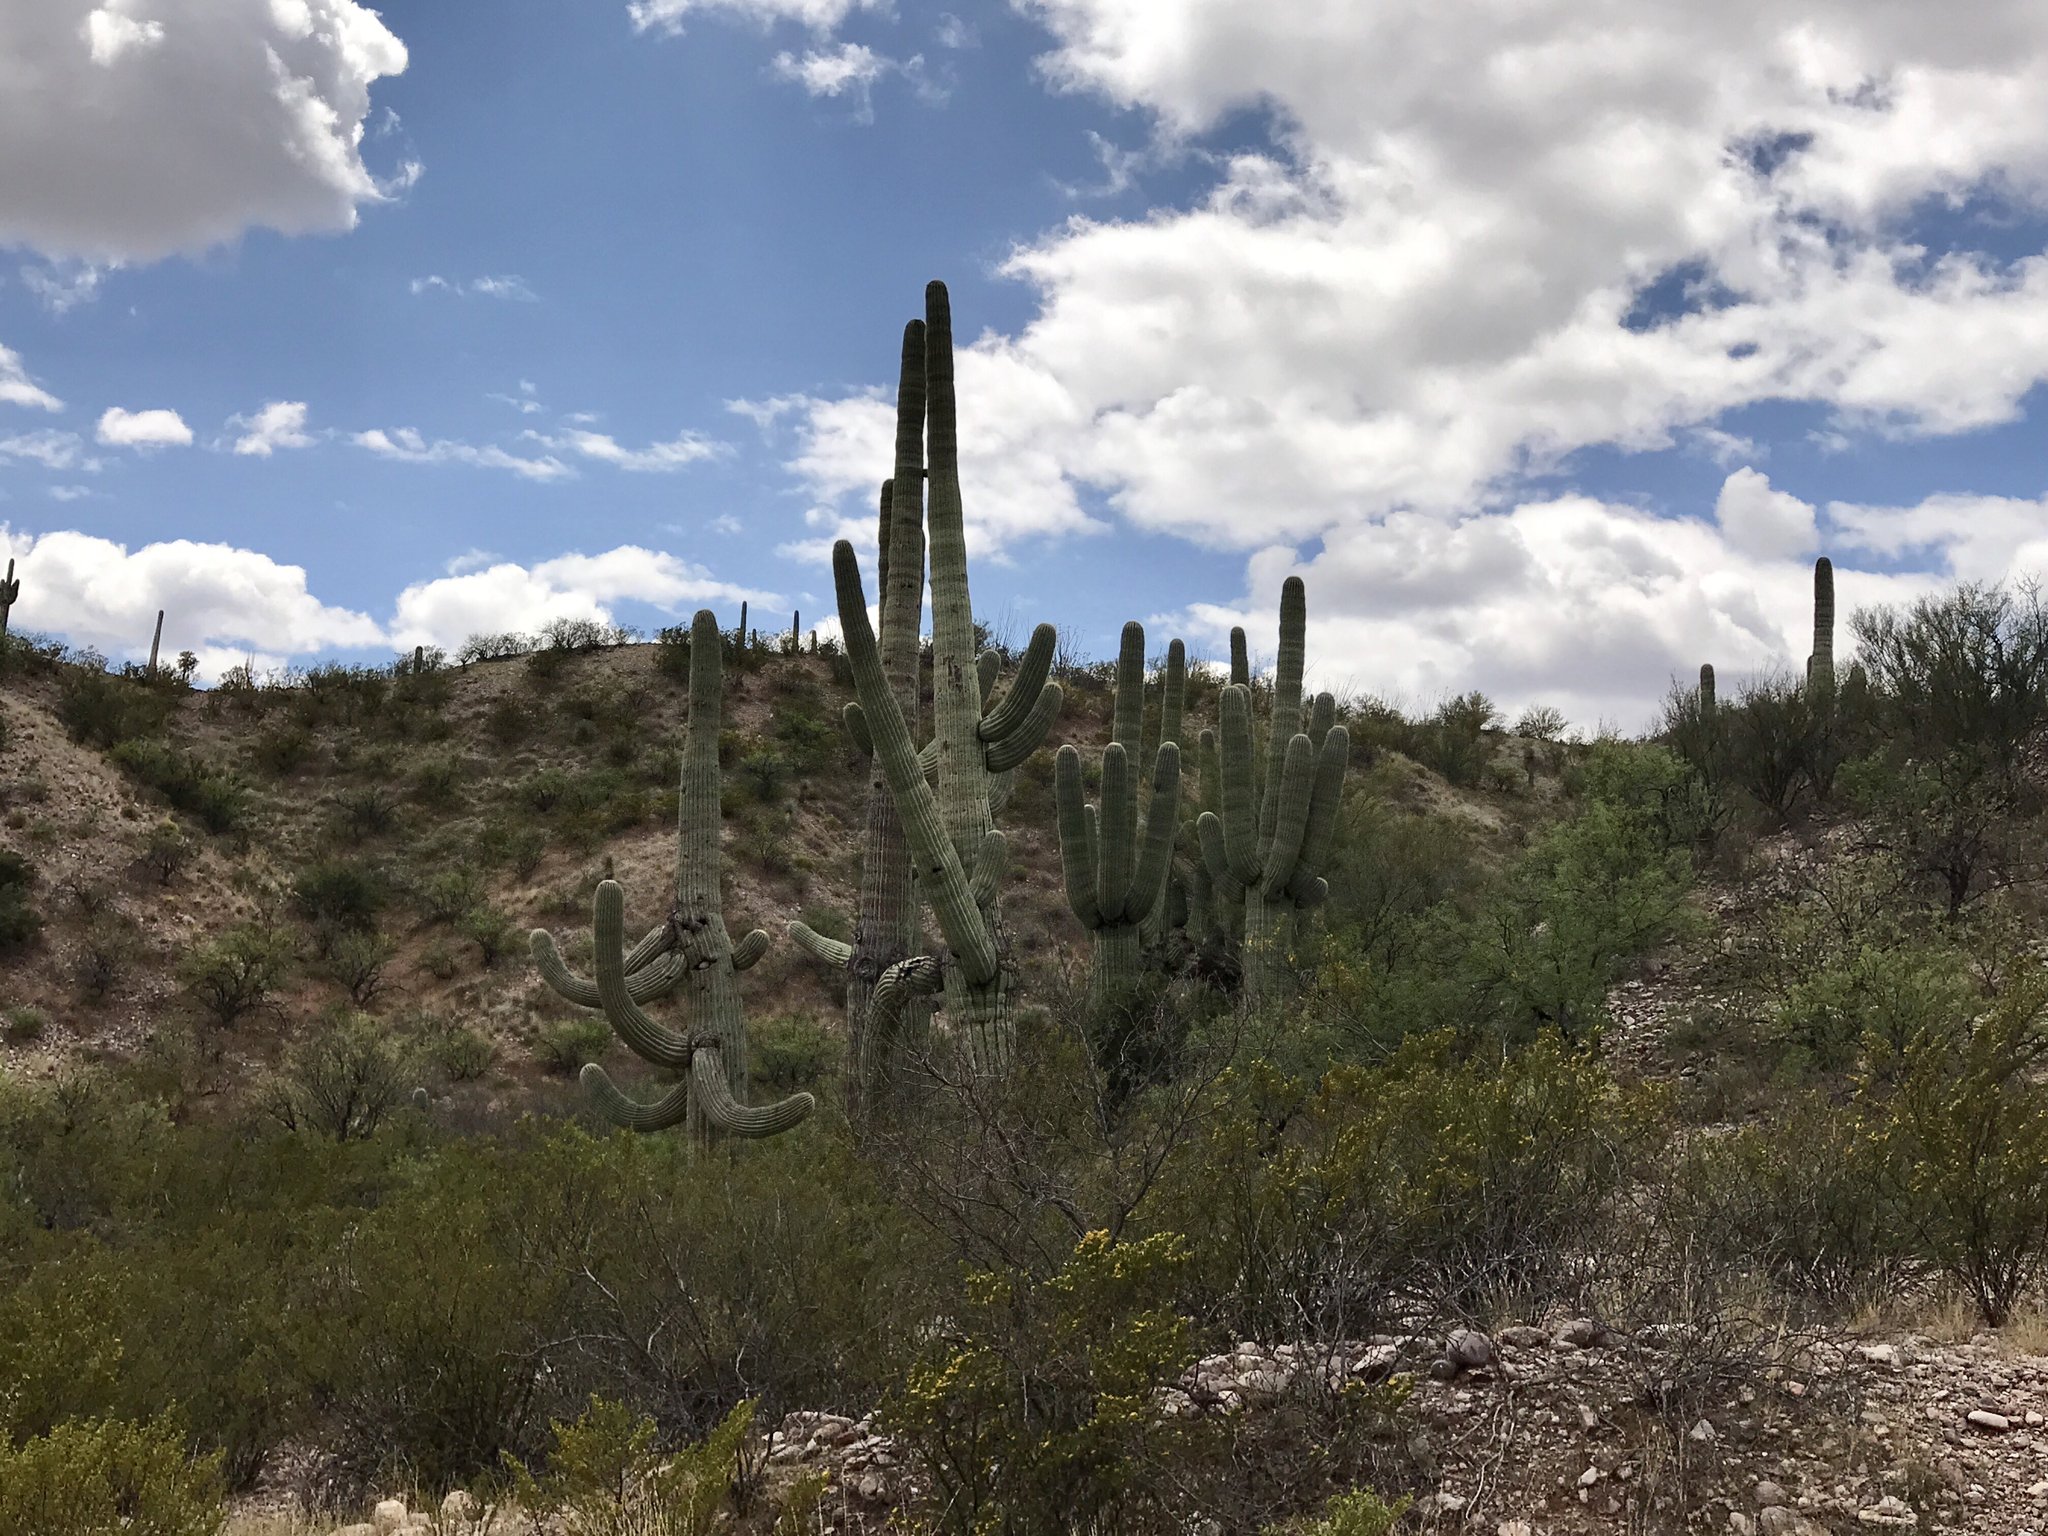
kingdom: Plantae
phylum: Tracheophyta
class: Magnoliopsida
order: Caryophyllales
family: Cactaceae
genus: Carnegiea
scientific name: Carnegiea gigantea
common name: Saguaro
